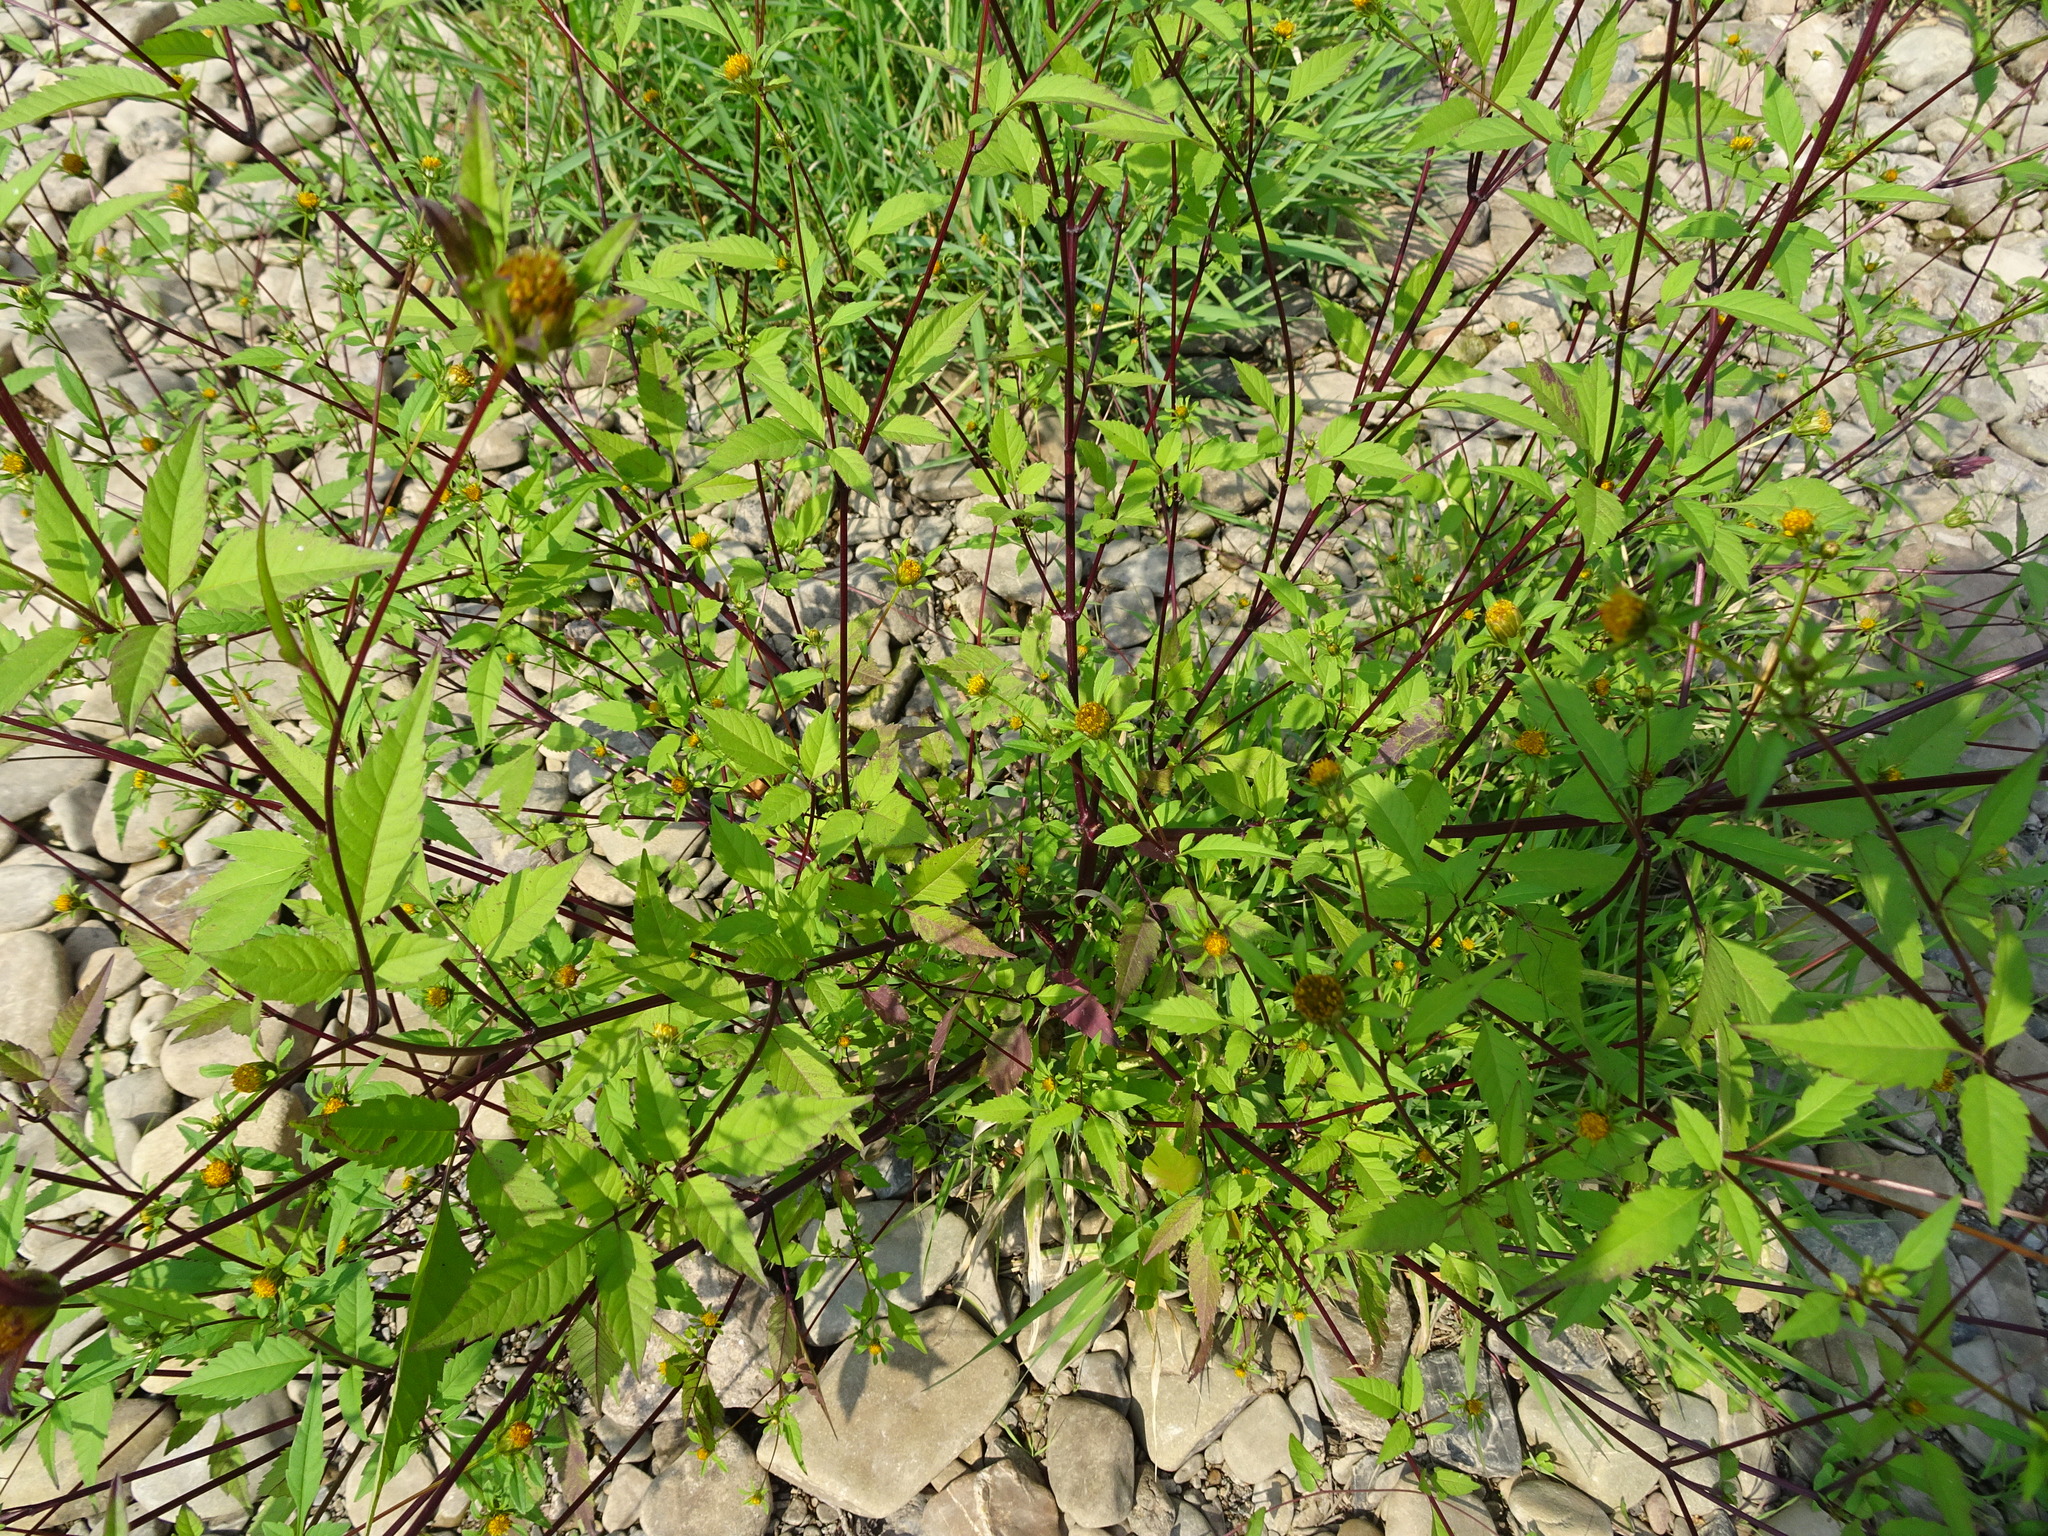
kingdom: Plantae
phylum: Tracheophyta
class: Magnoliopsida
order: Asterales
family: Asteraceae
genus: Bidens
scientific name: Bidens frondosa
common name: Beggarticks
